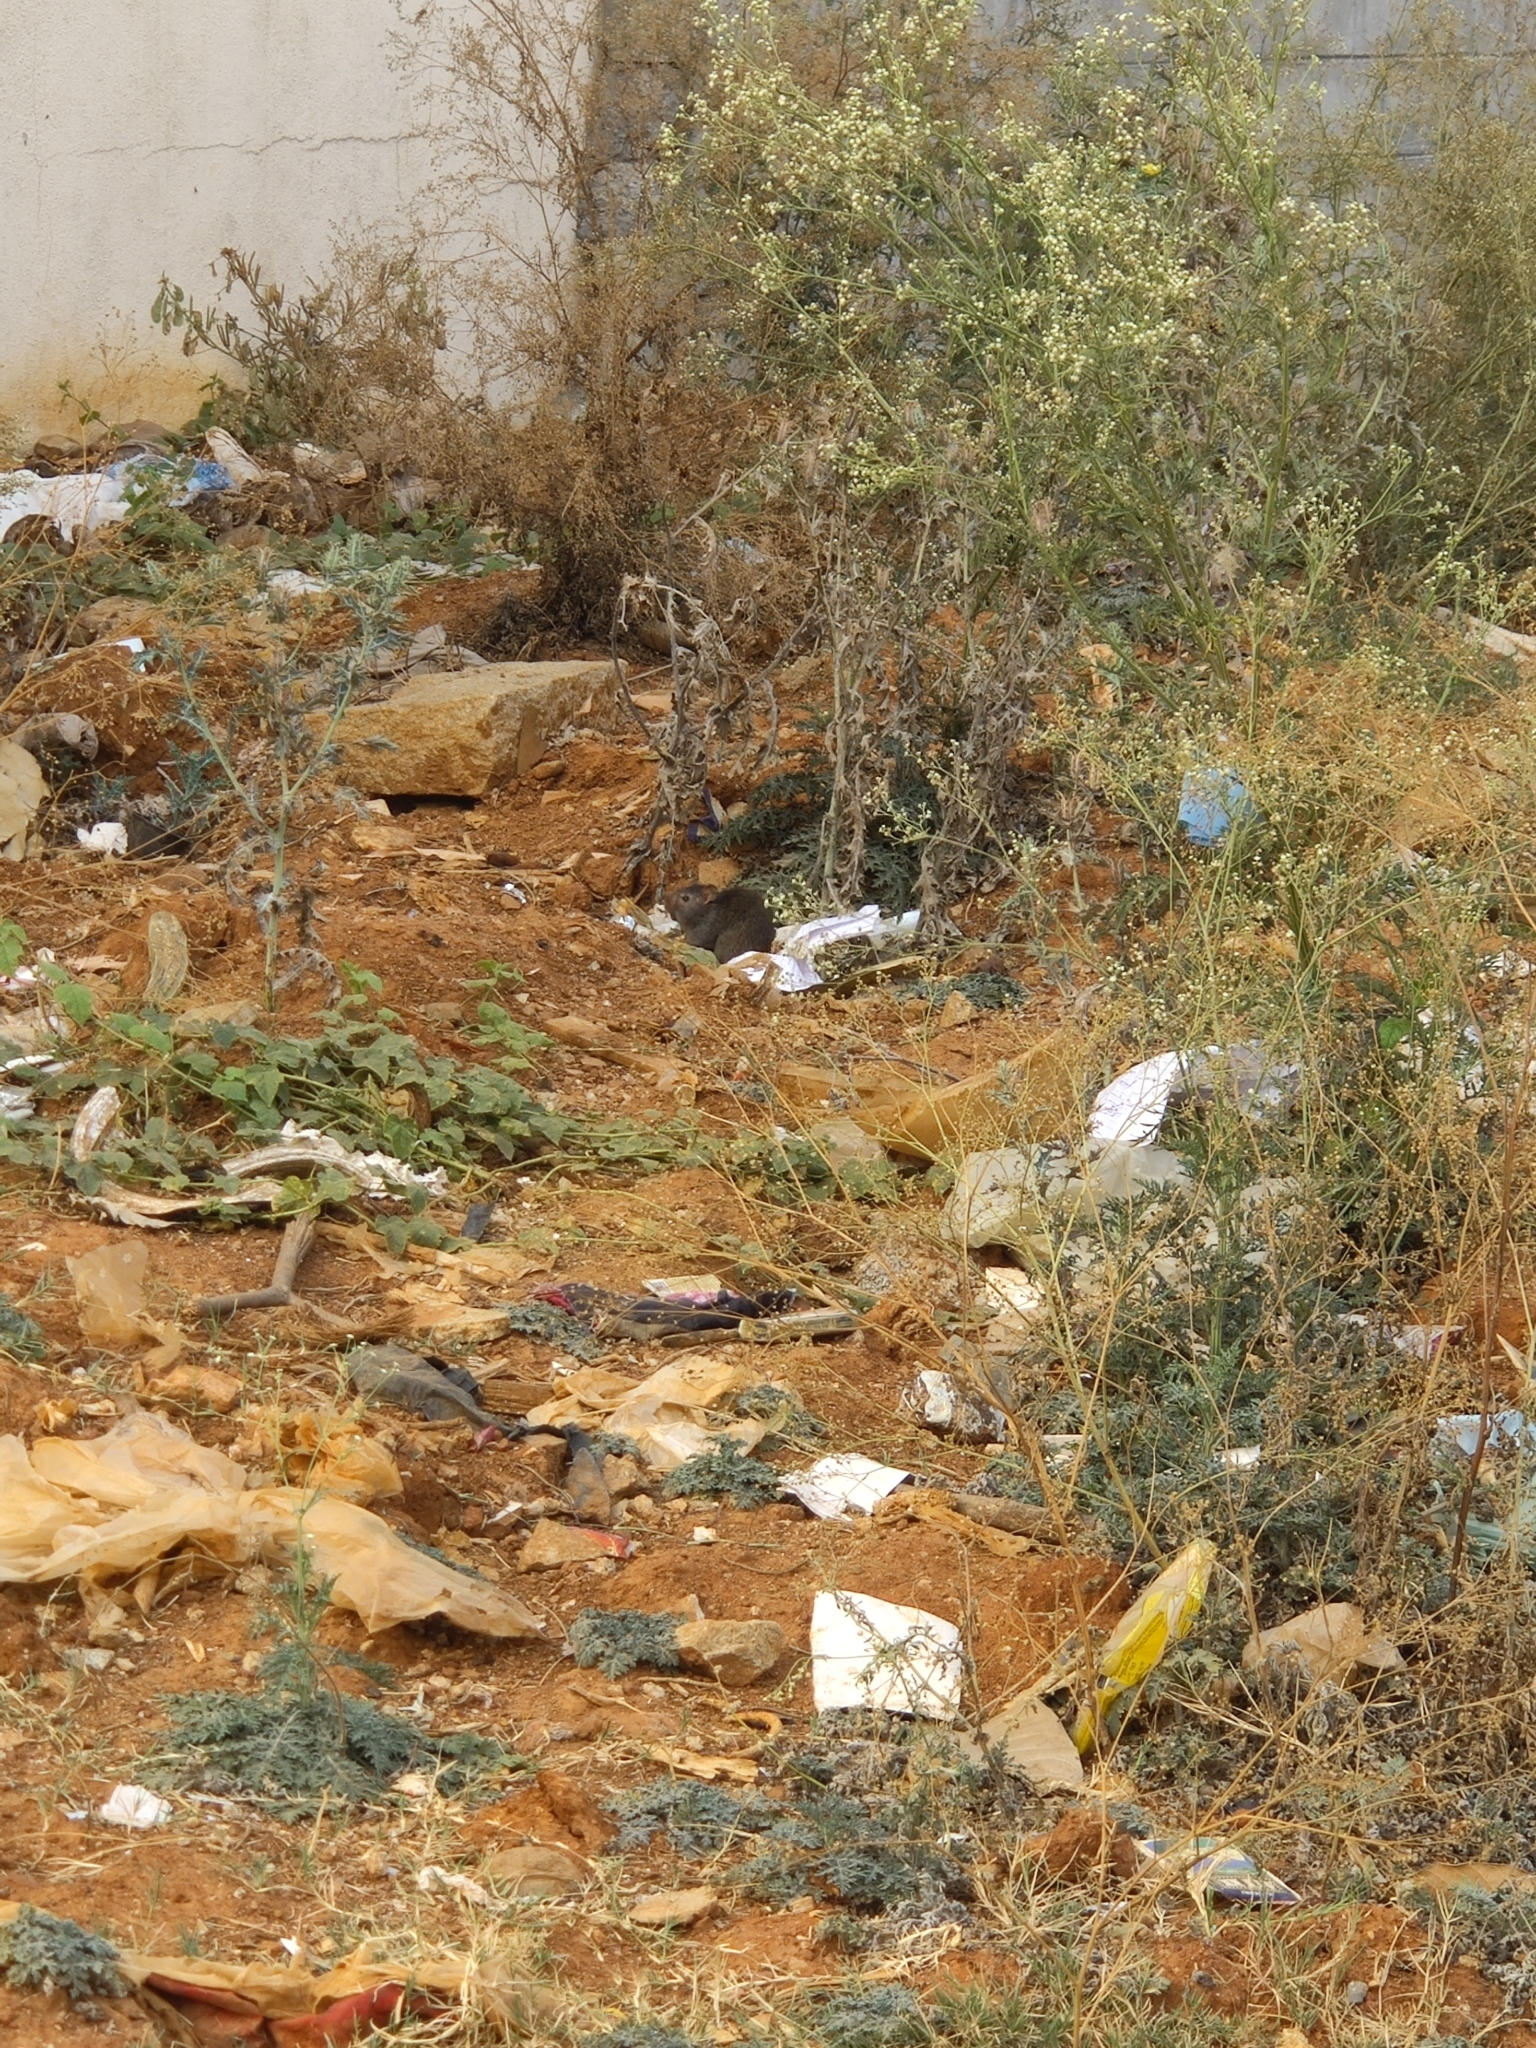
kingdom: Animalia
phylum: Chordata
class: Mammalia
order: Rodentia
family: Muridae
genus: Bandicota
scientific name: Bandicota bengalensis
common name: Lesser bandicoot rat
